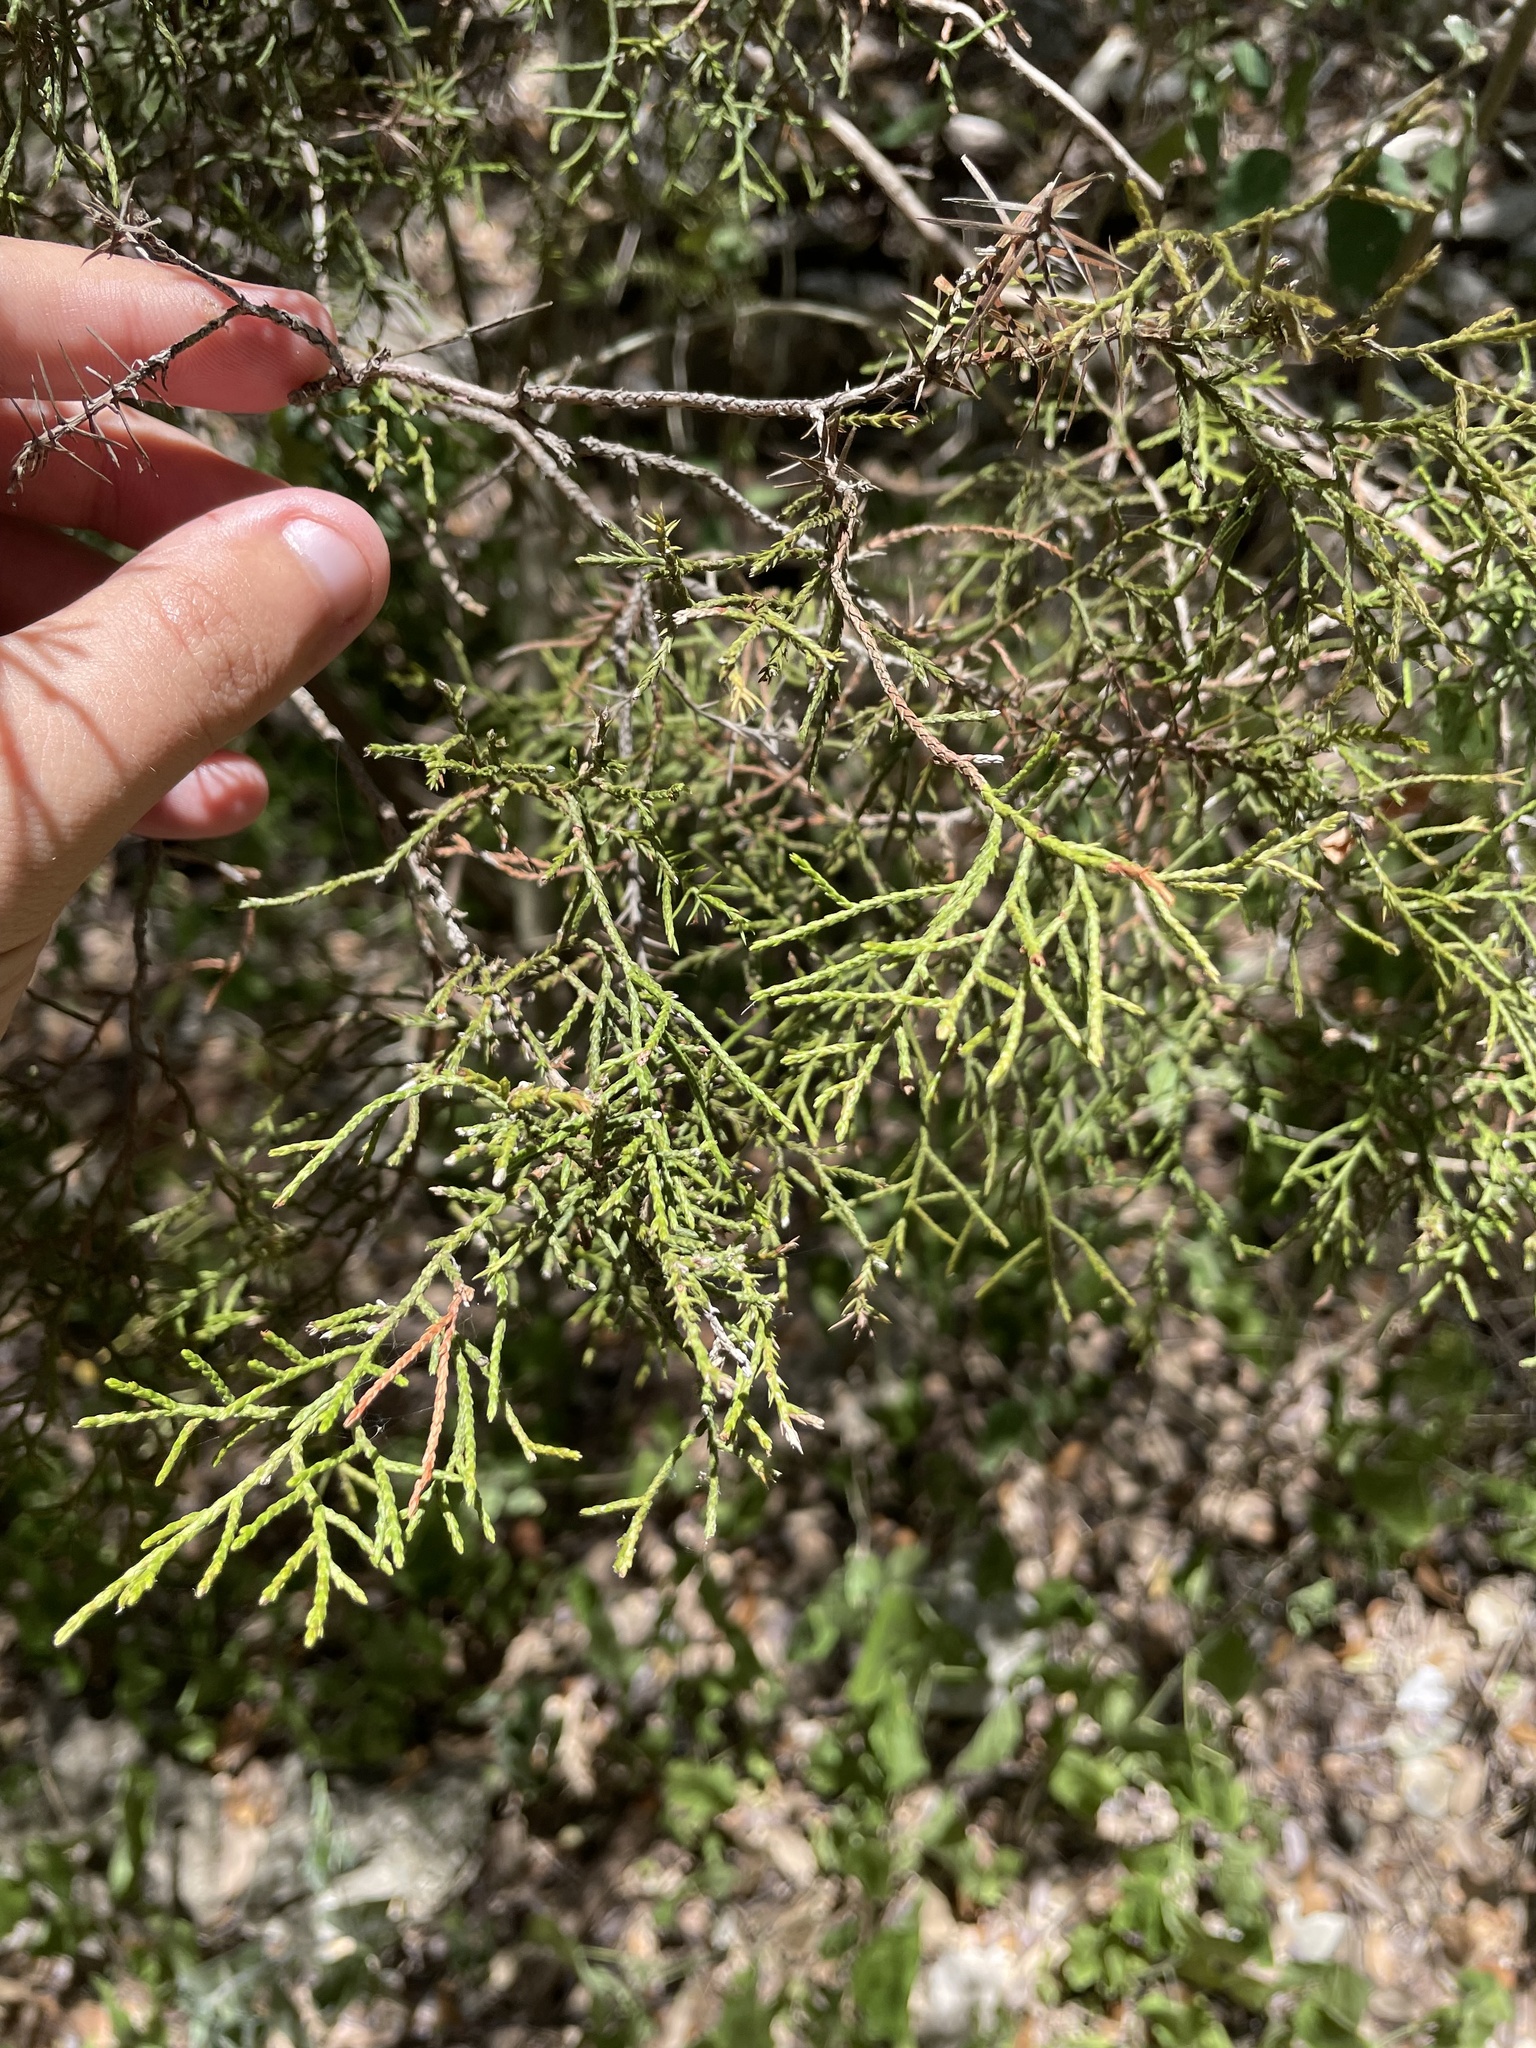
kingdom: Plantae
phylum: Tracheophyta
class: Pinopsida
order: Pinales
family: Cupressaceae
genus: Juniperus
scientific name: Juniperus ashei
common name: Mexican juniper
